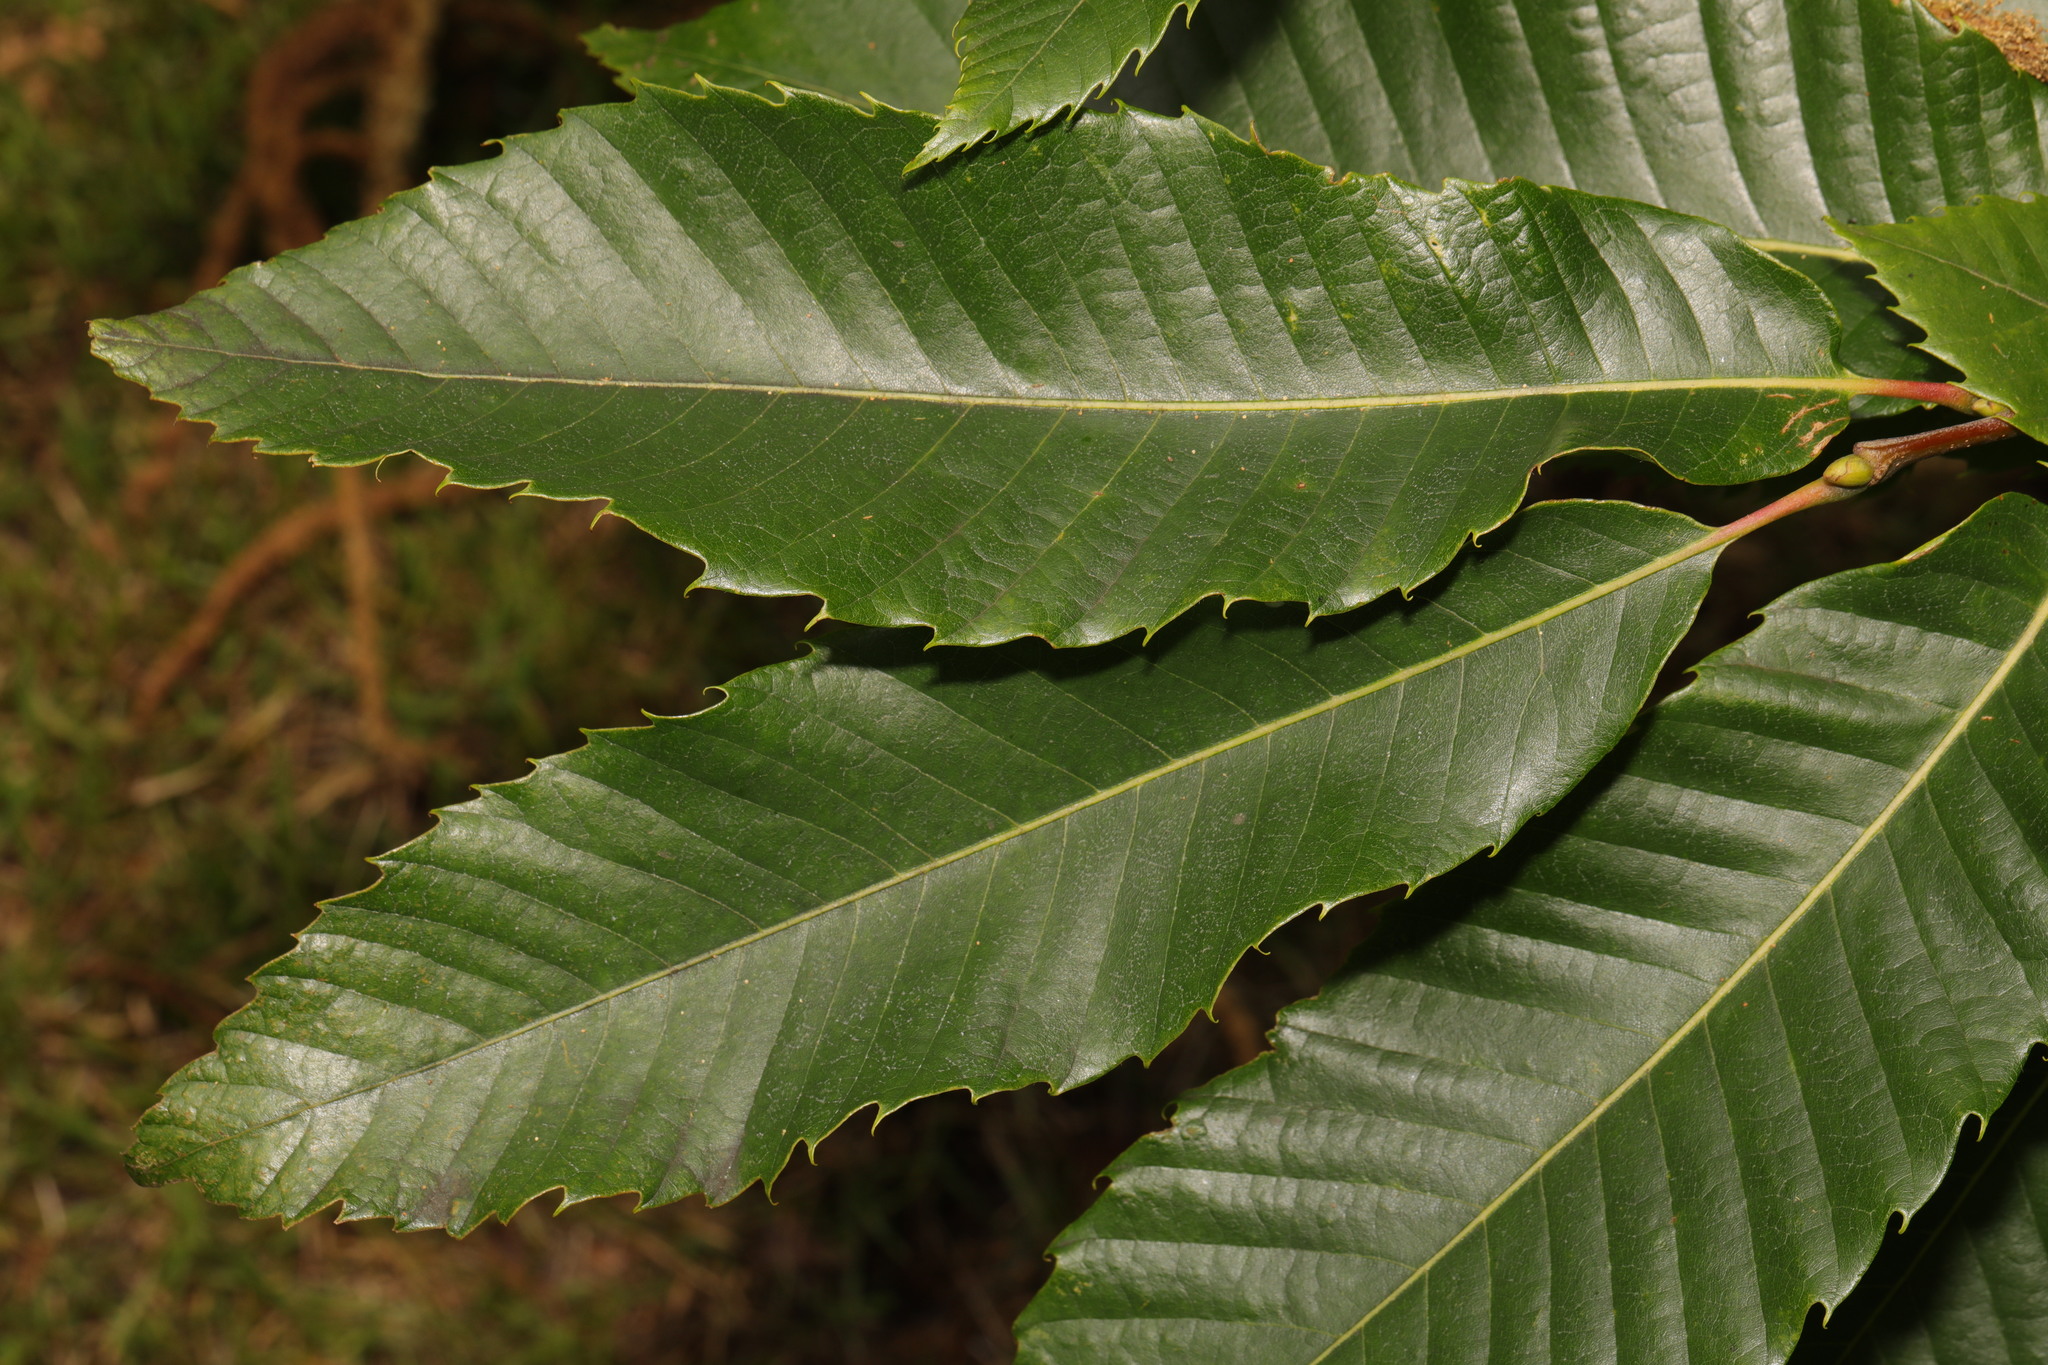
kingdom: Plantae
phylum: Tracheophyta
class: Magnoliopsida
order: Fagales
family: Fagaceae
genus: Castanea
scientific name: Castanea sativa
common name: Sweet chestnut
